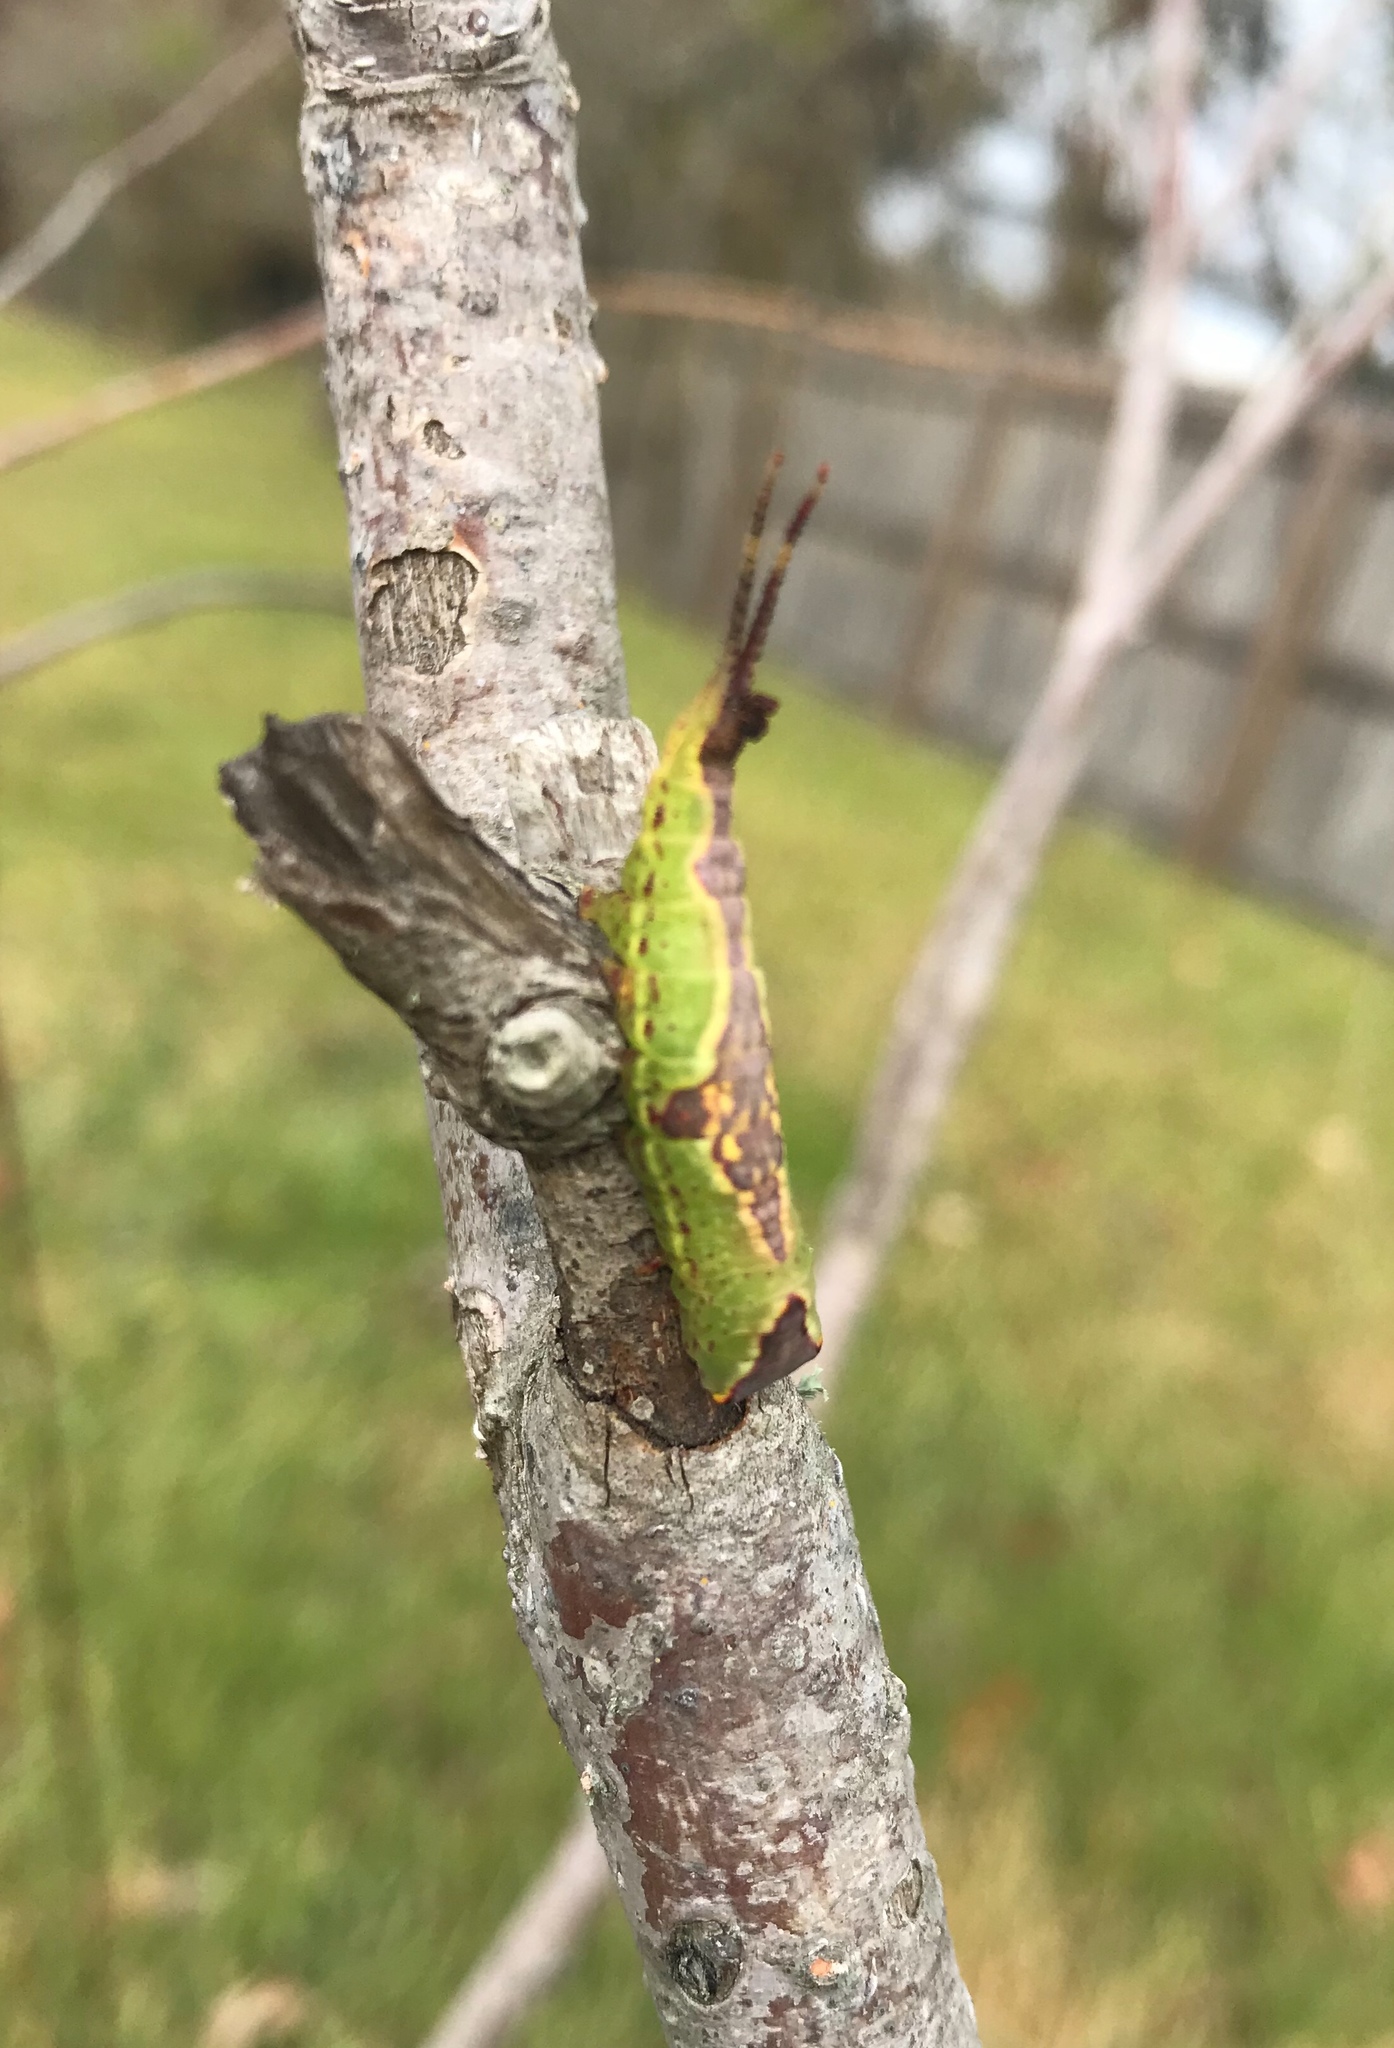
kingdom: Animalia
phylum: Arthropoda
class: Insecta
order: Lepidoptera
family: Notodontidae
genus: Furcula
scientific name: Furcula cinerea
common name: Gray furcula
